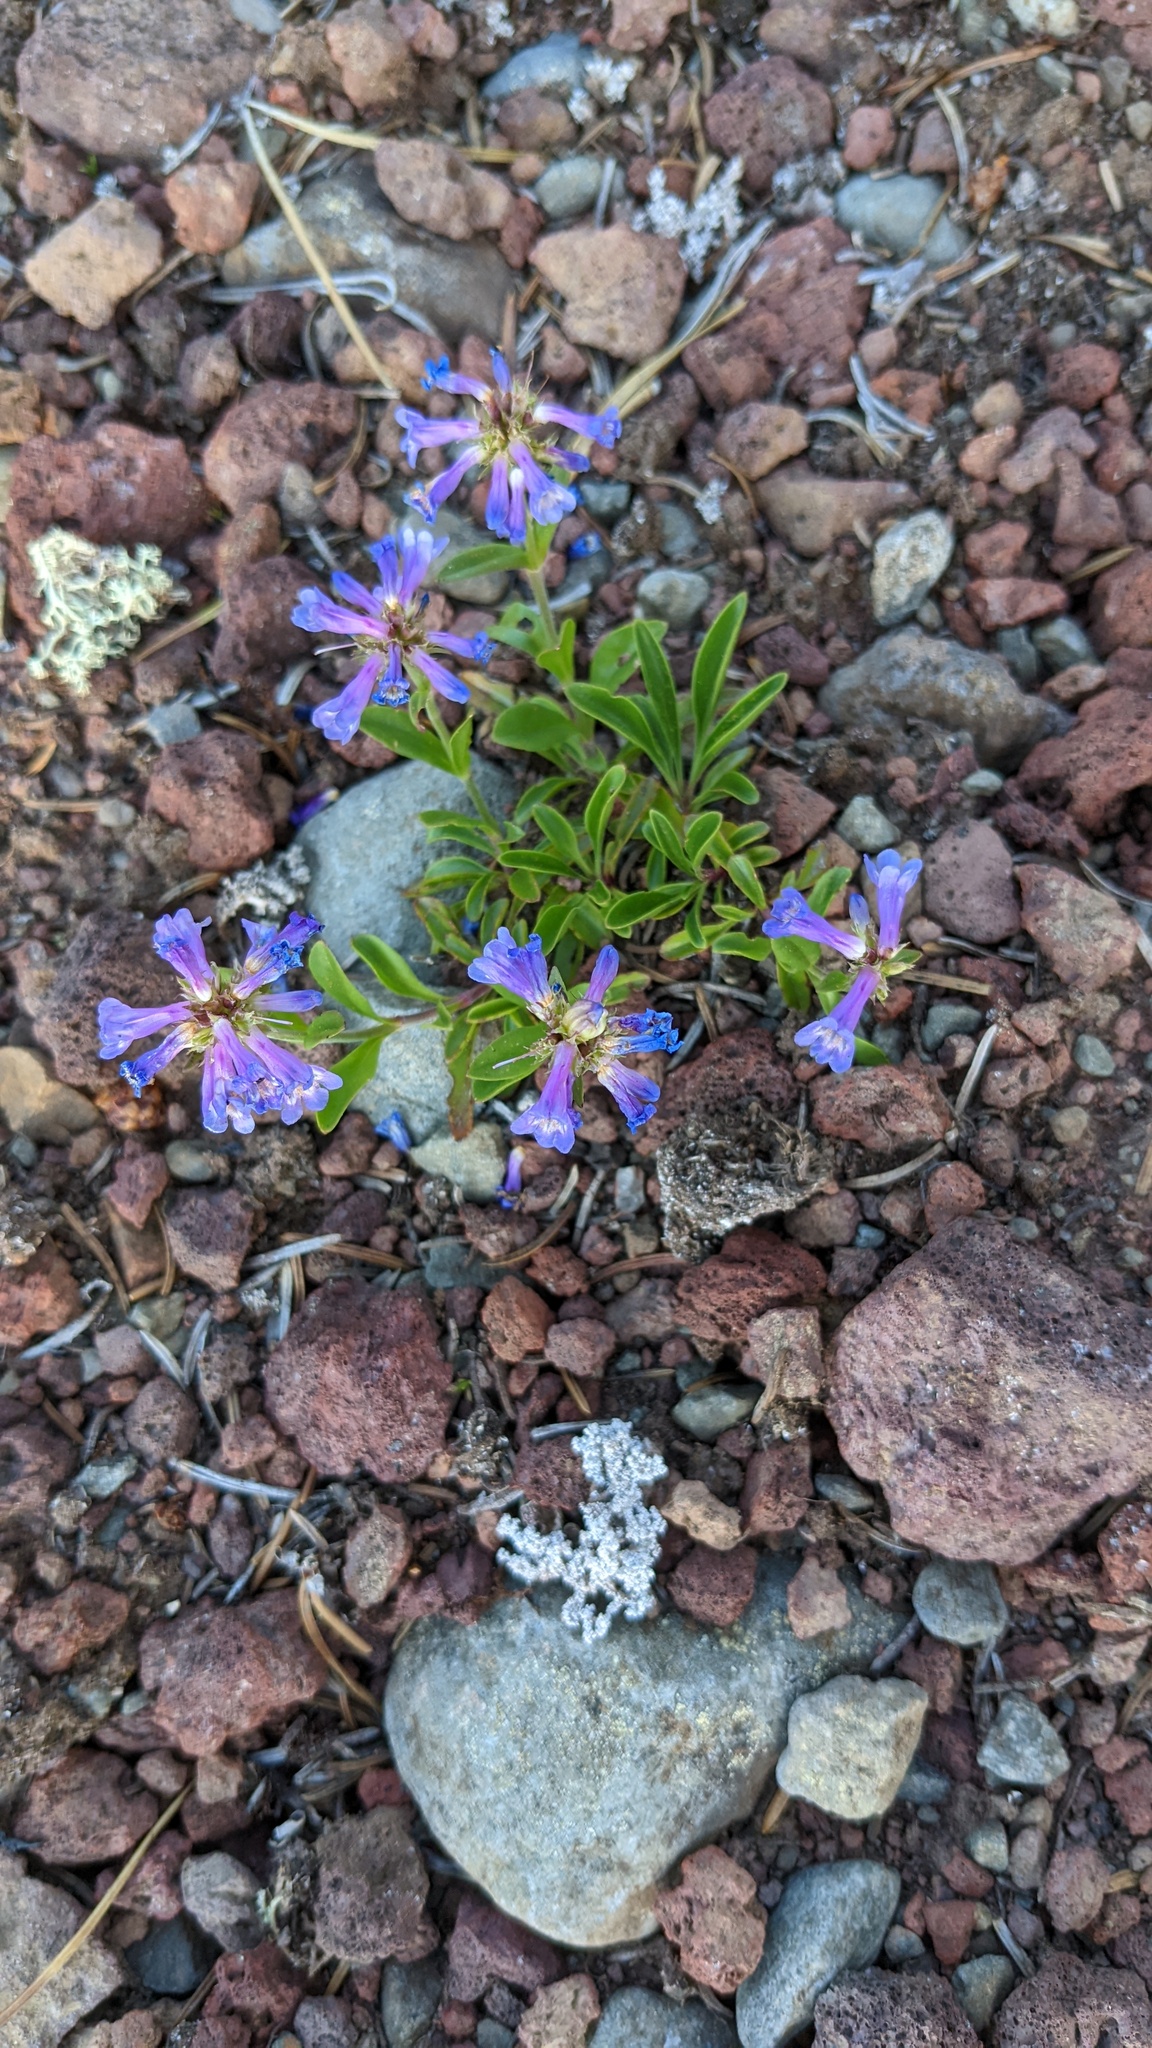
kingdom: Plantae
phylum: Tracheophyta
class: Magnoliopsida
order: Lamiales
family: Plantaginaceae
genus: Penstemon
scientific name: Penstemon procerus
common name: Small-flower penstemon
